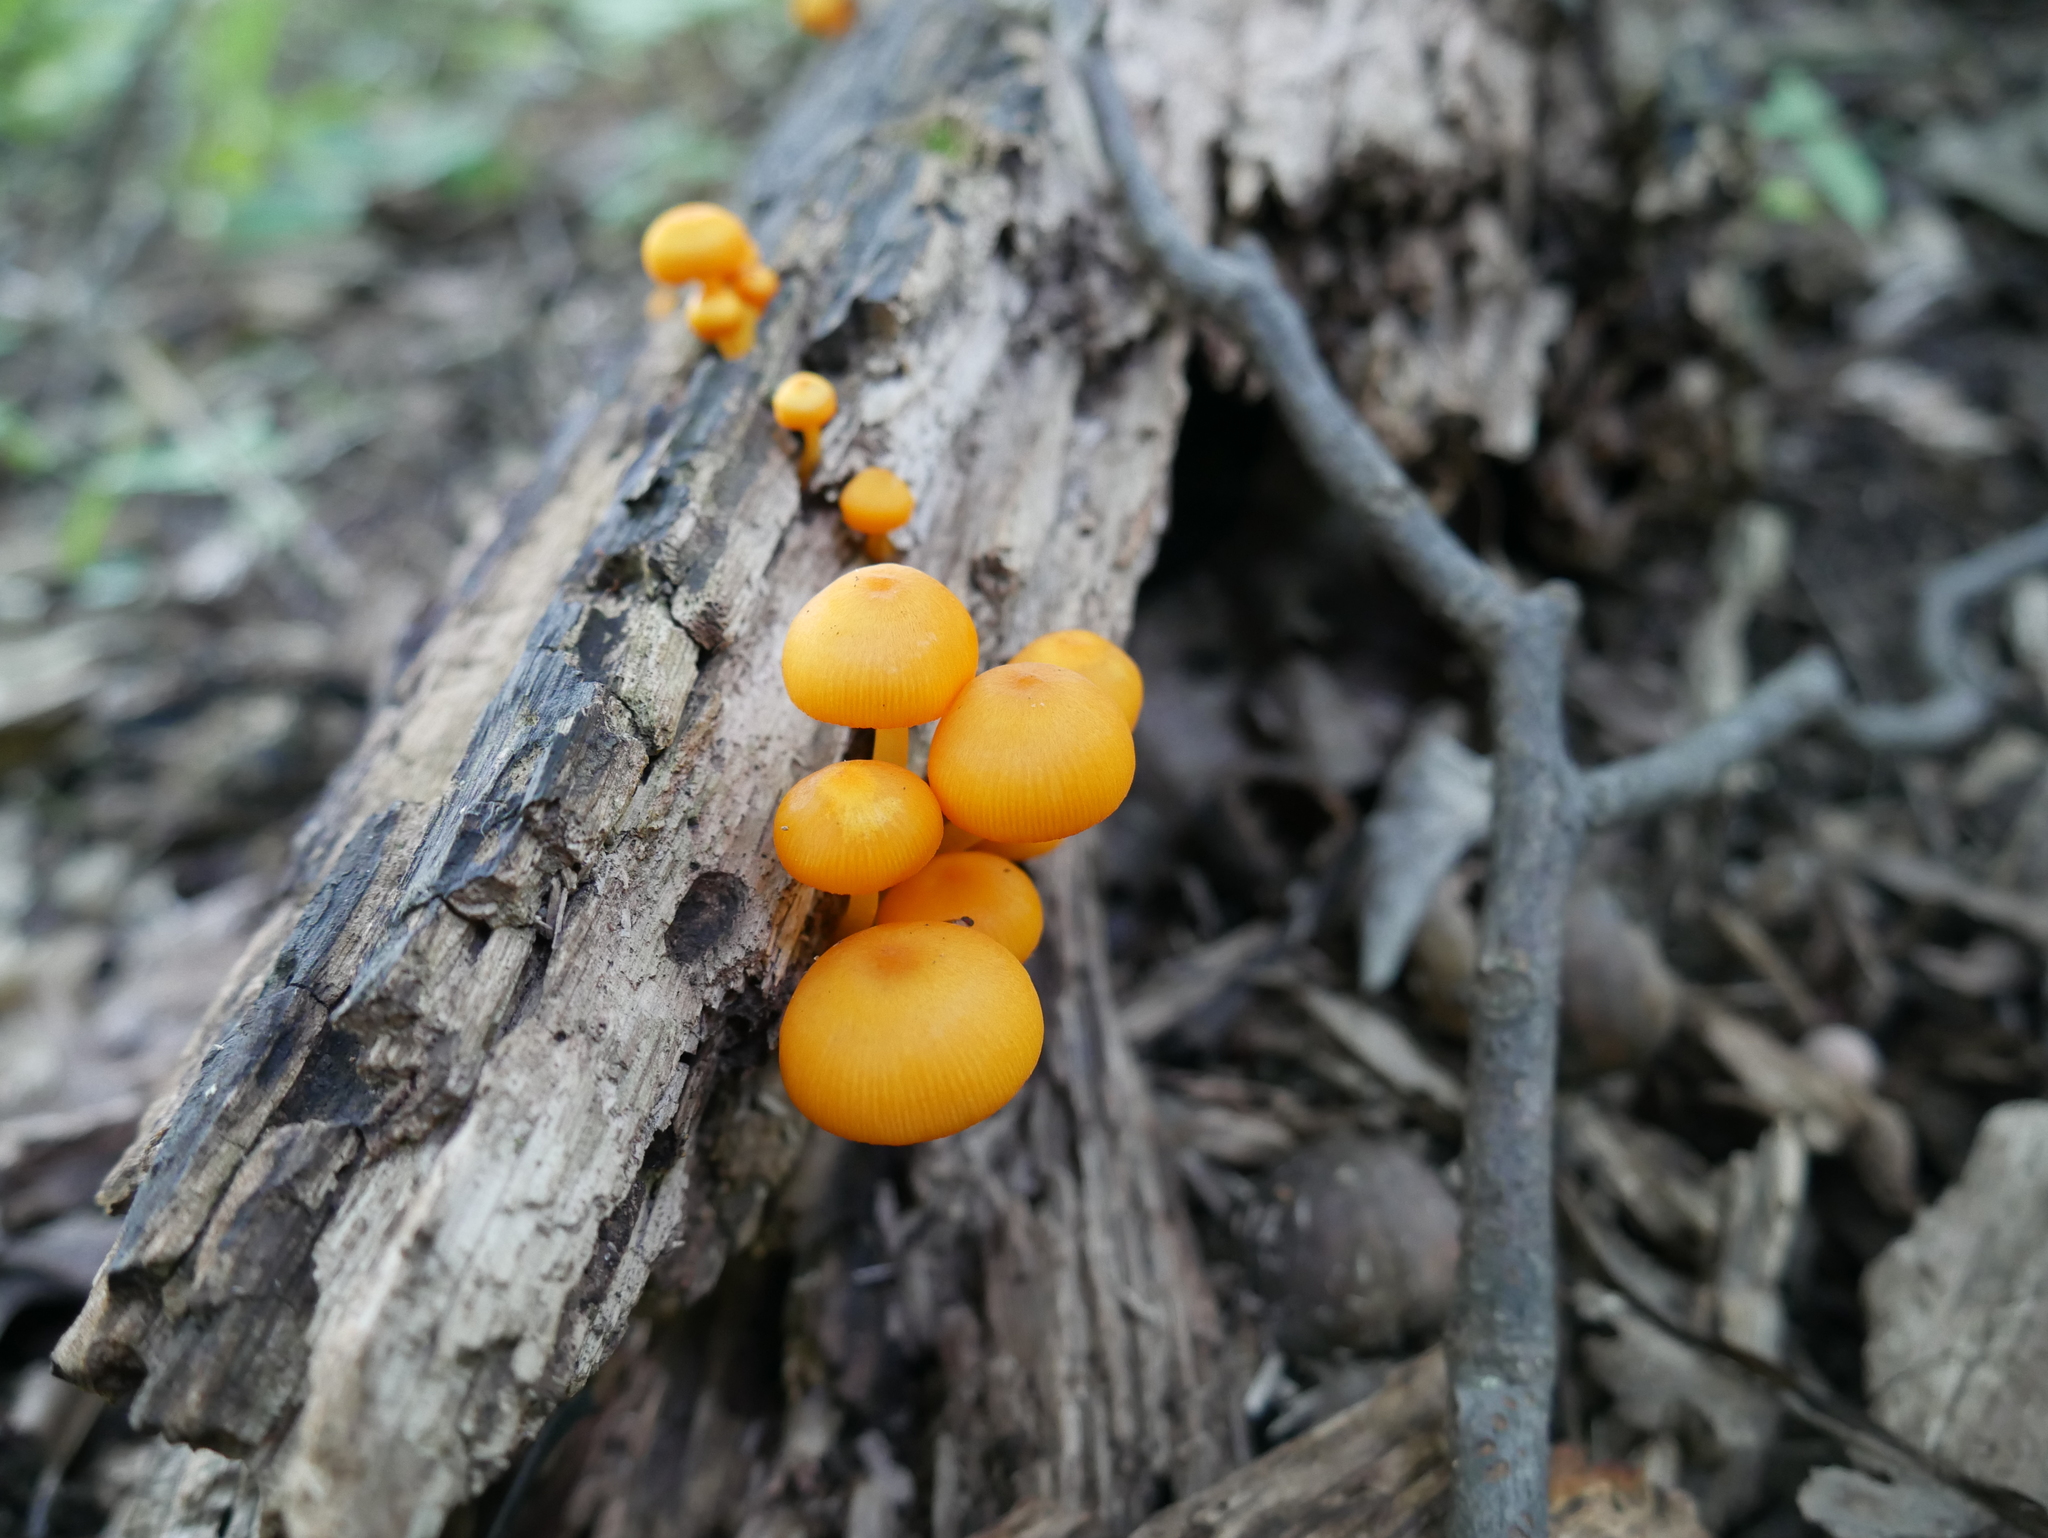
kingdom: Fungi
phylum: Basidiomycota
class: Agaricomycetes
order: Agaricales
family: Mycenaceae
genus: Mycena
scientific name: Mycena leaiana
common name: Orange mycena
